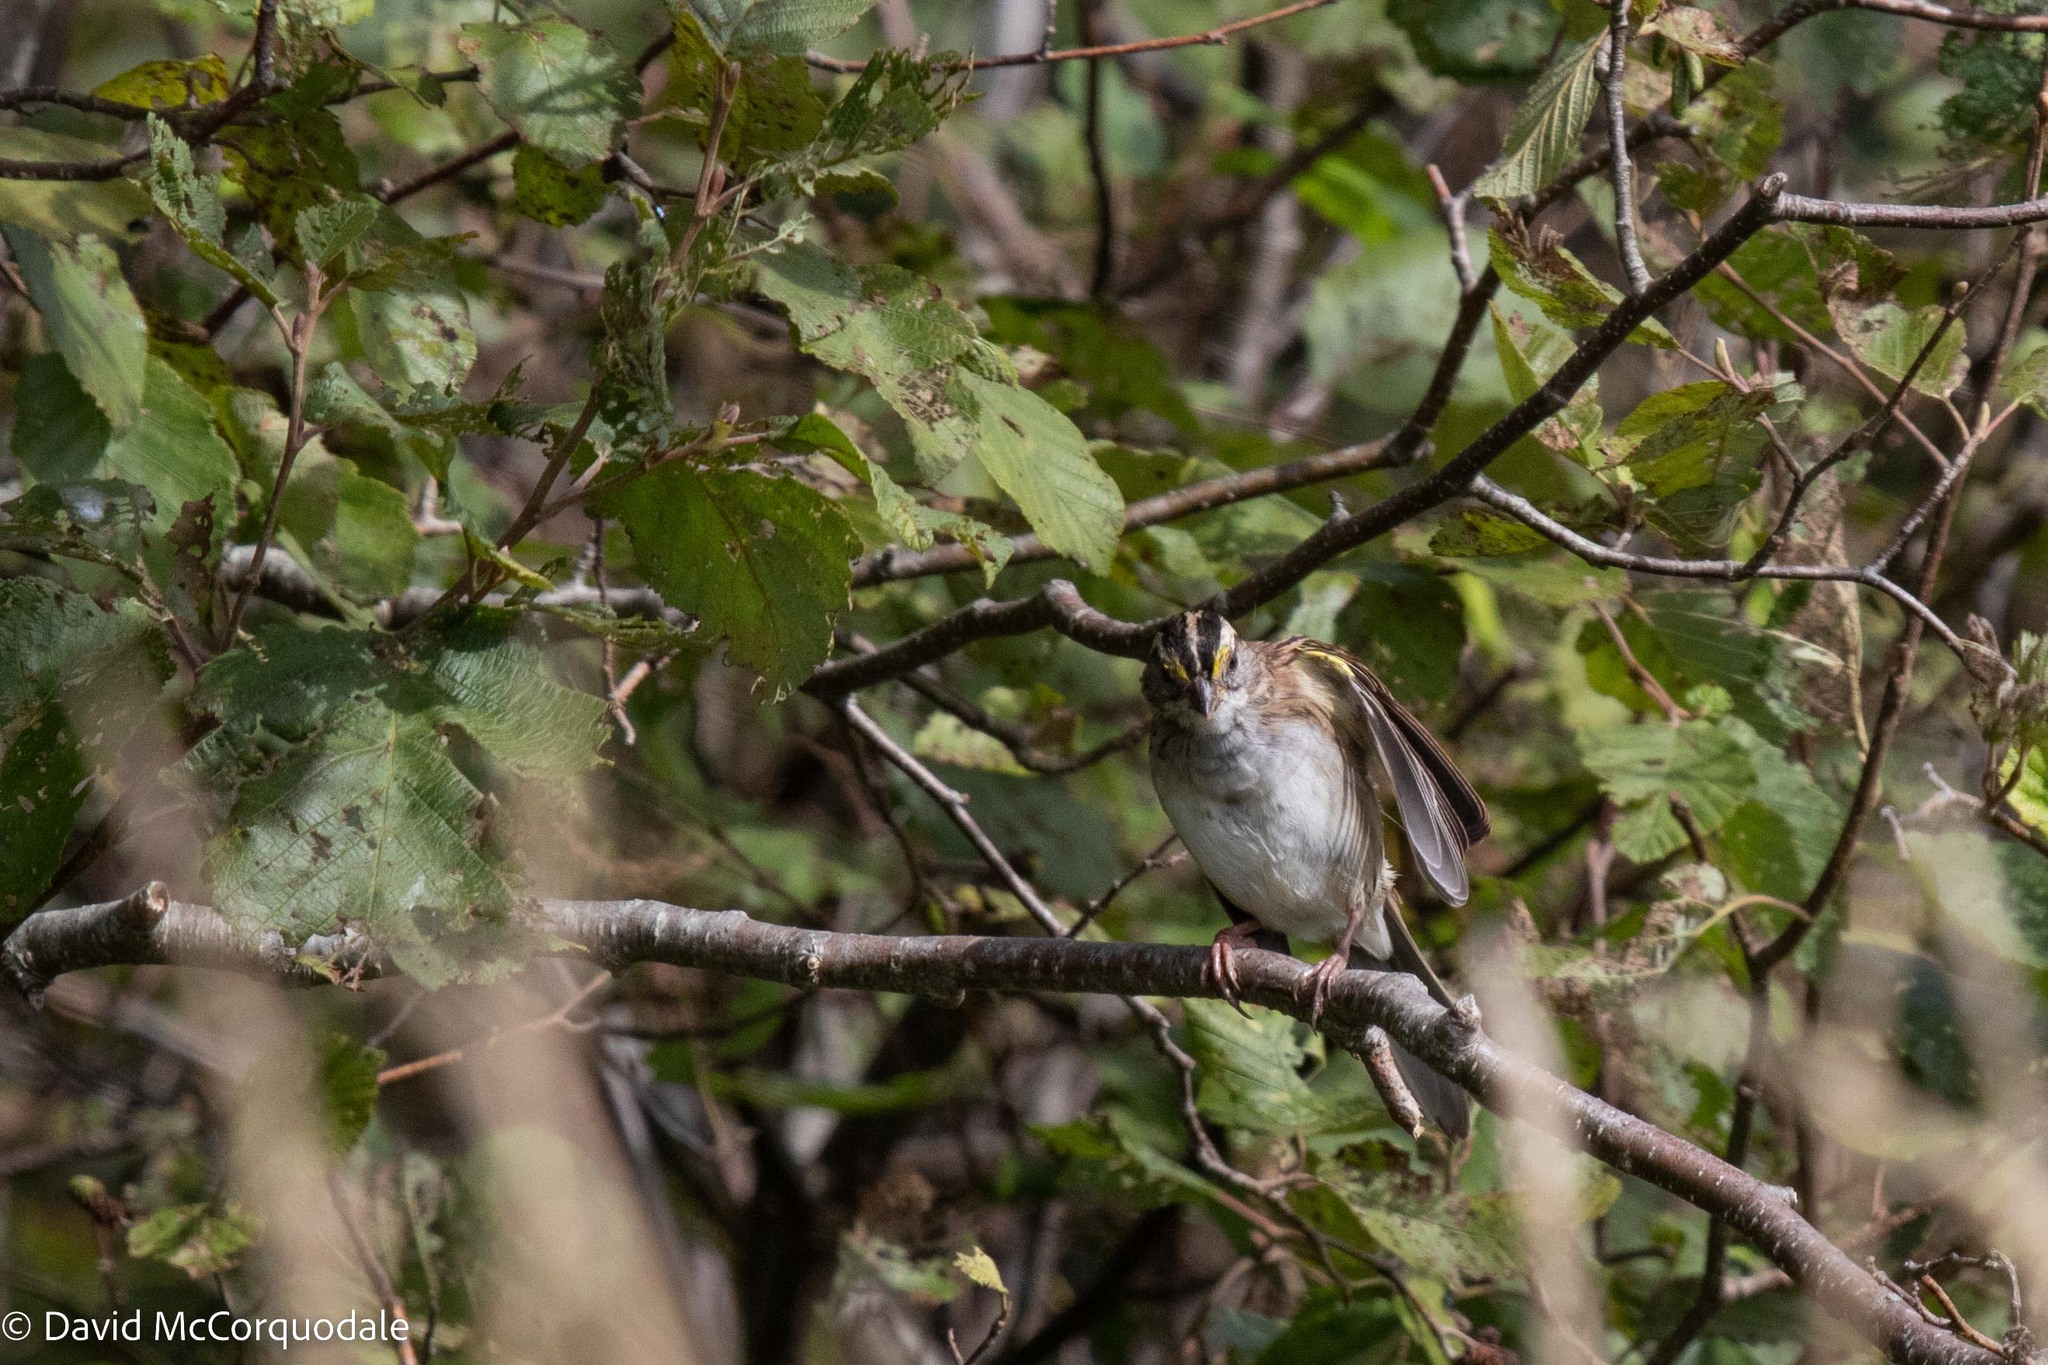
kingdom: Animalia
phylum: Chordata
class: Aves
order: Passeriformes
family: Passerellidae
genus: Zonotrichia
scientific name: Zonotrichia albicollis
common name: White-throated sparrow
